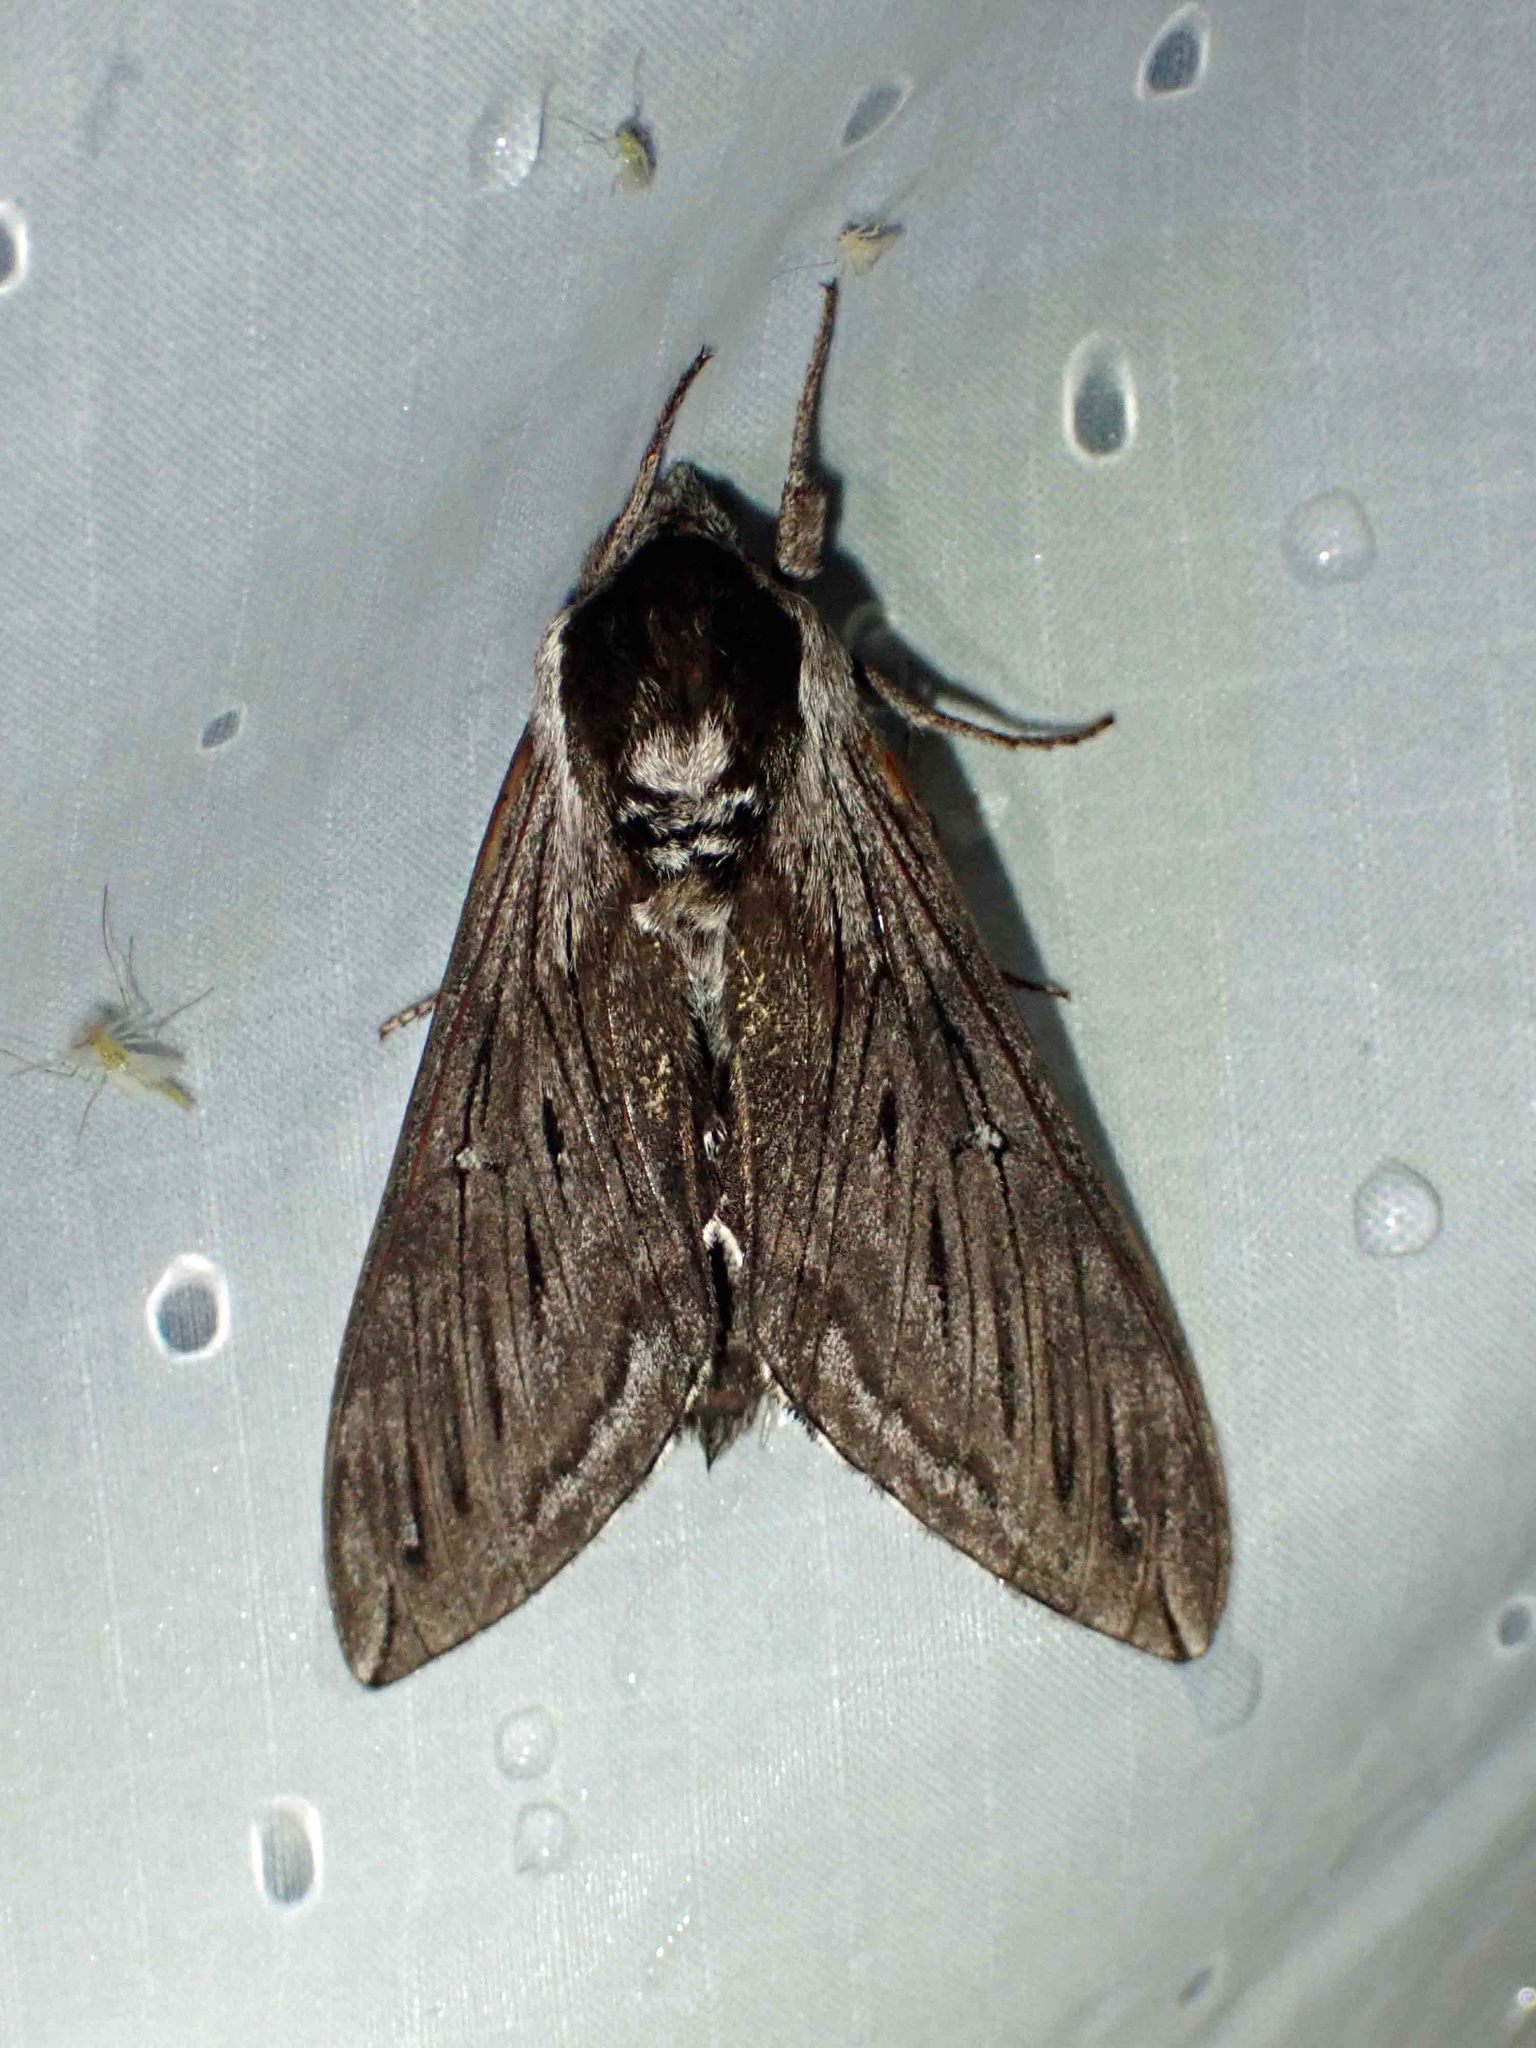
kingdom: Animalia
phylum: Arthropoda
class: Insecta
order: Lepidoptera
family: Sphingidae
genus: Sphinx
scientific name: Sphinx poecila
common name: Northern apple sphinx
